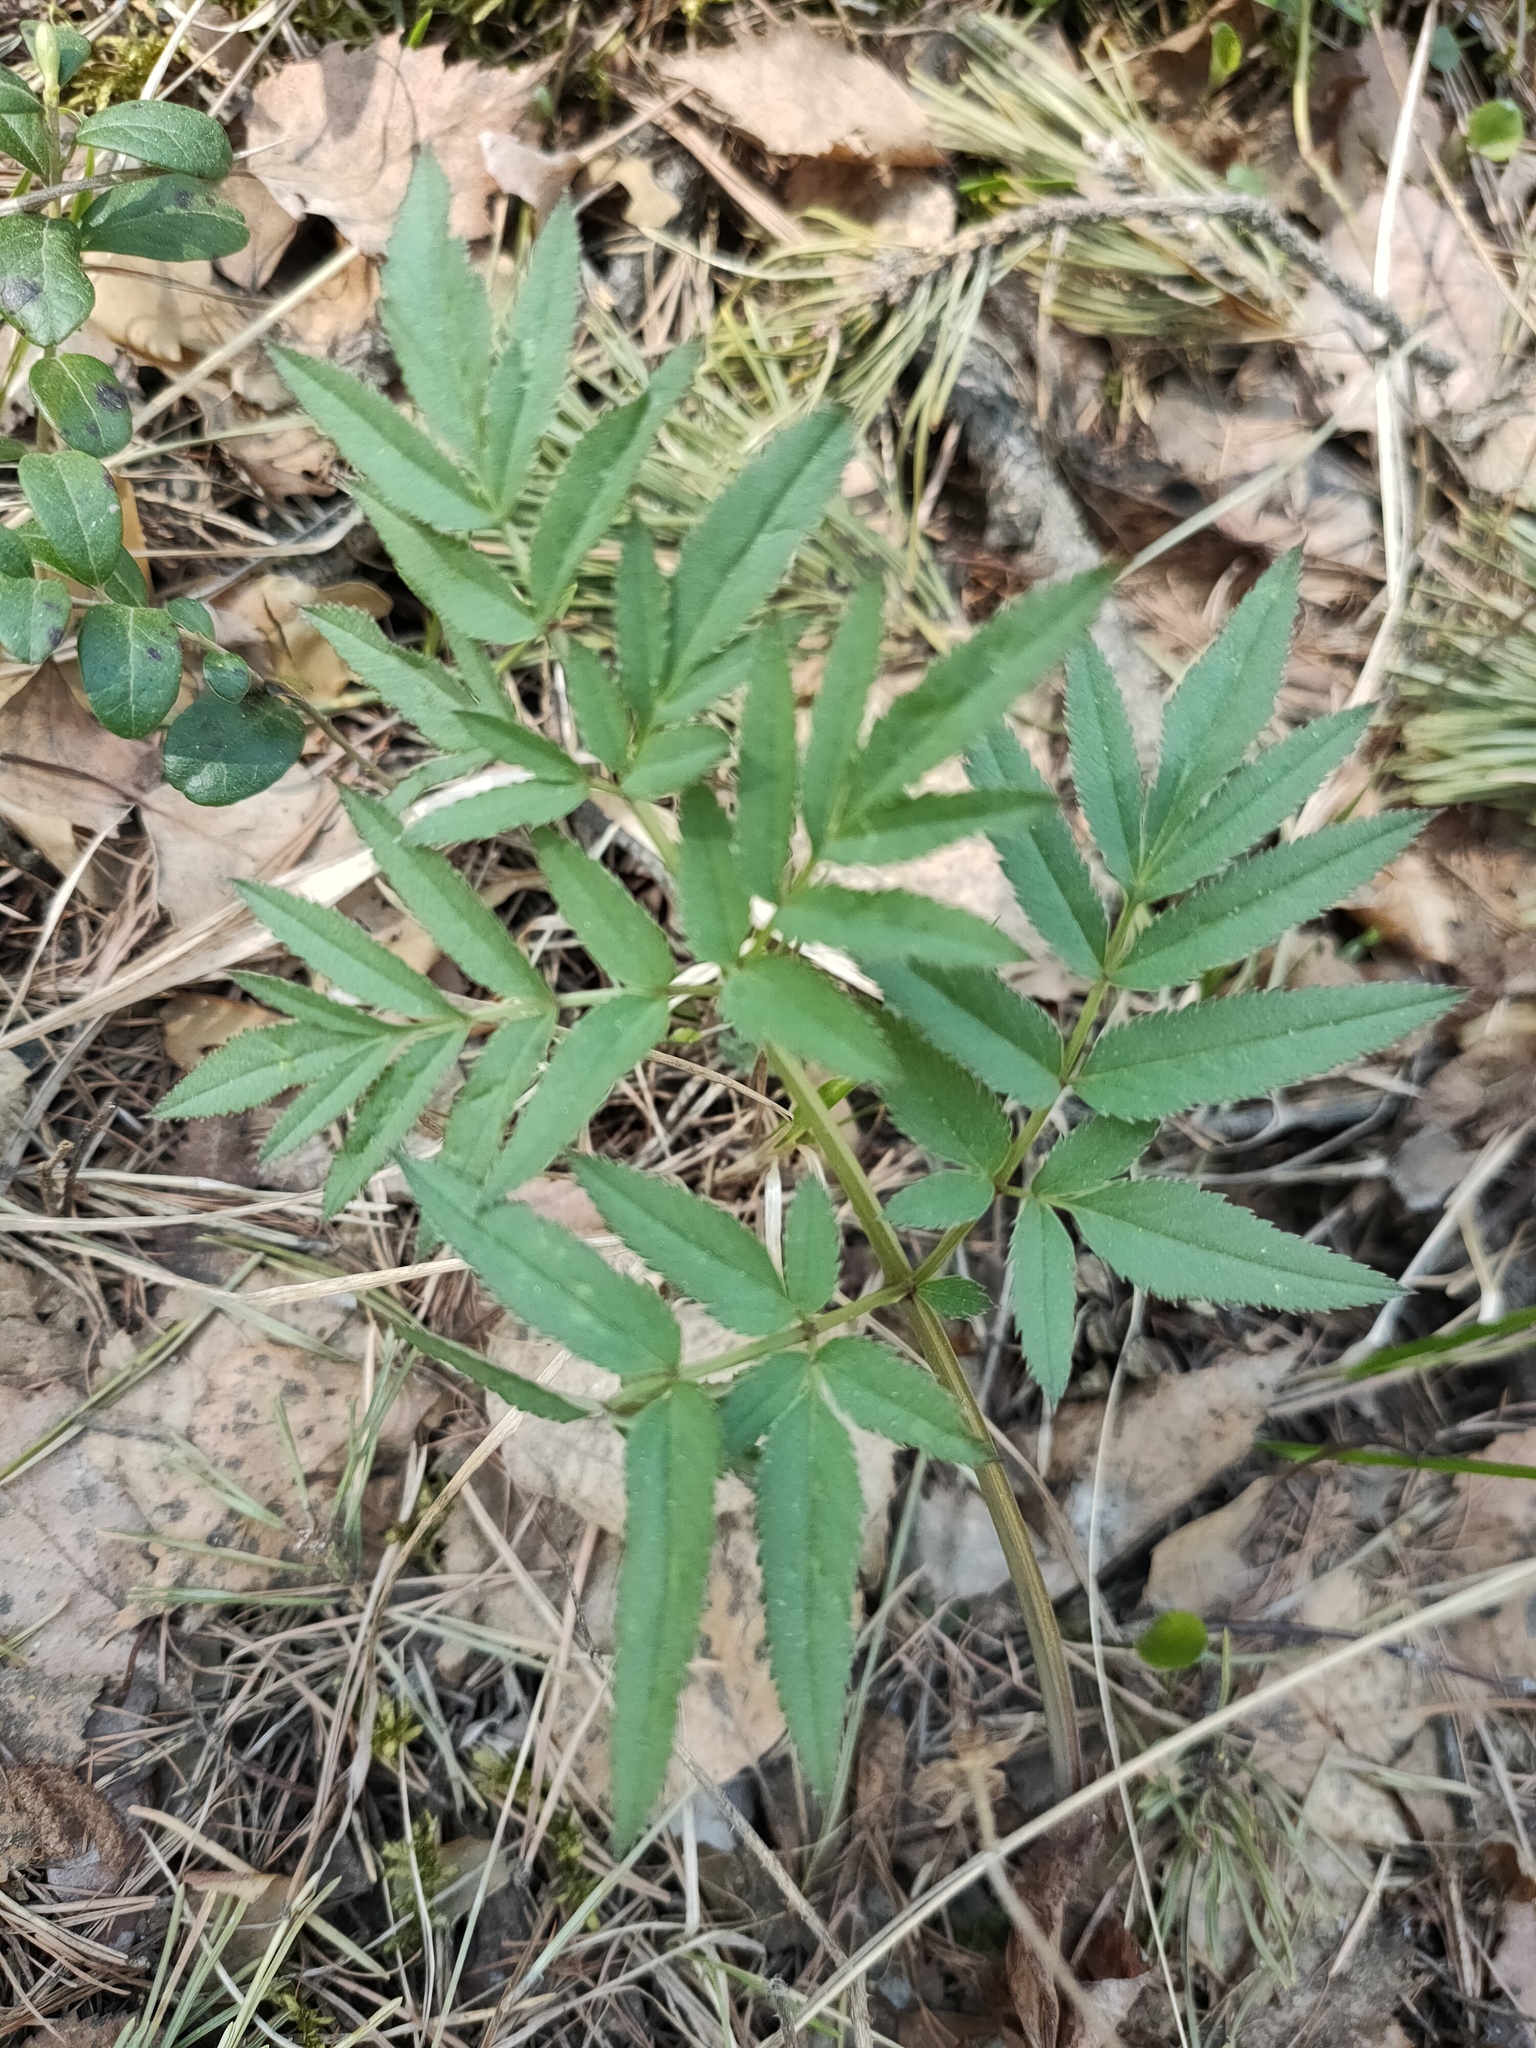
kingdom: Plantae
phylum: Tracheophyta
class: Magnoliopsida
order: Apiales
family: Apiaceae
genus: Angelica
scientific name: Angelica sylvestris
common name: Wild angelica
